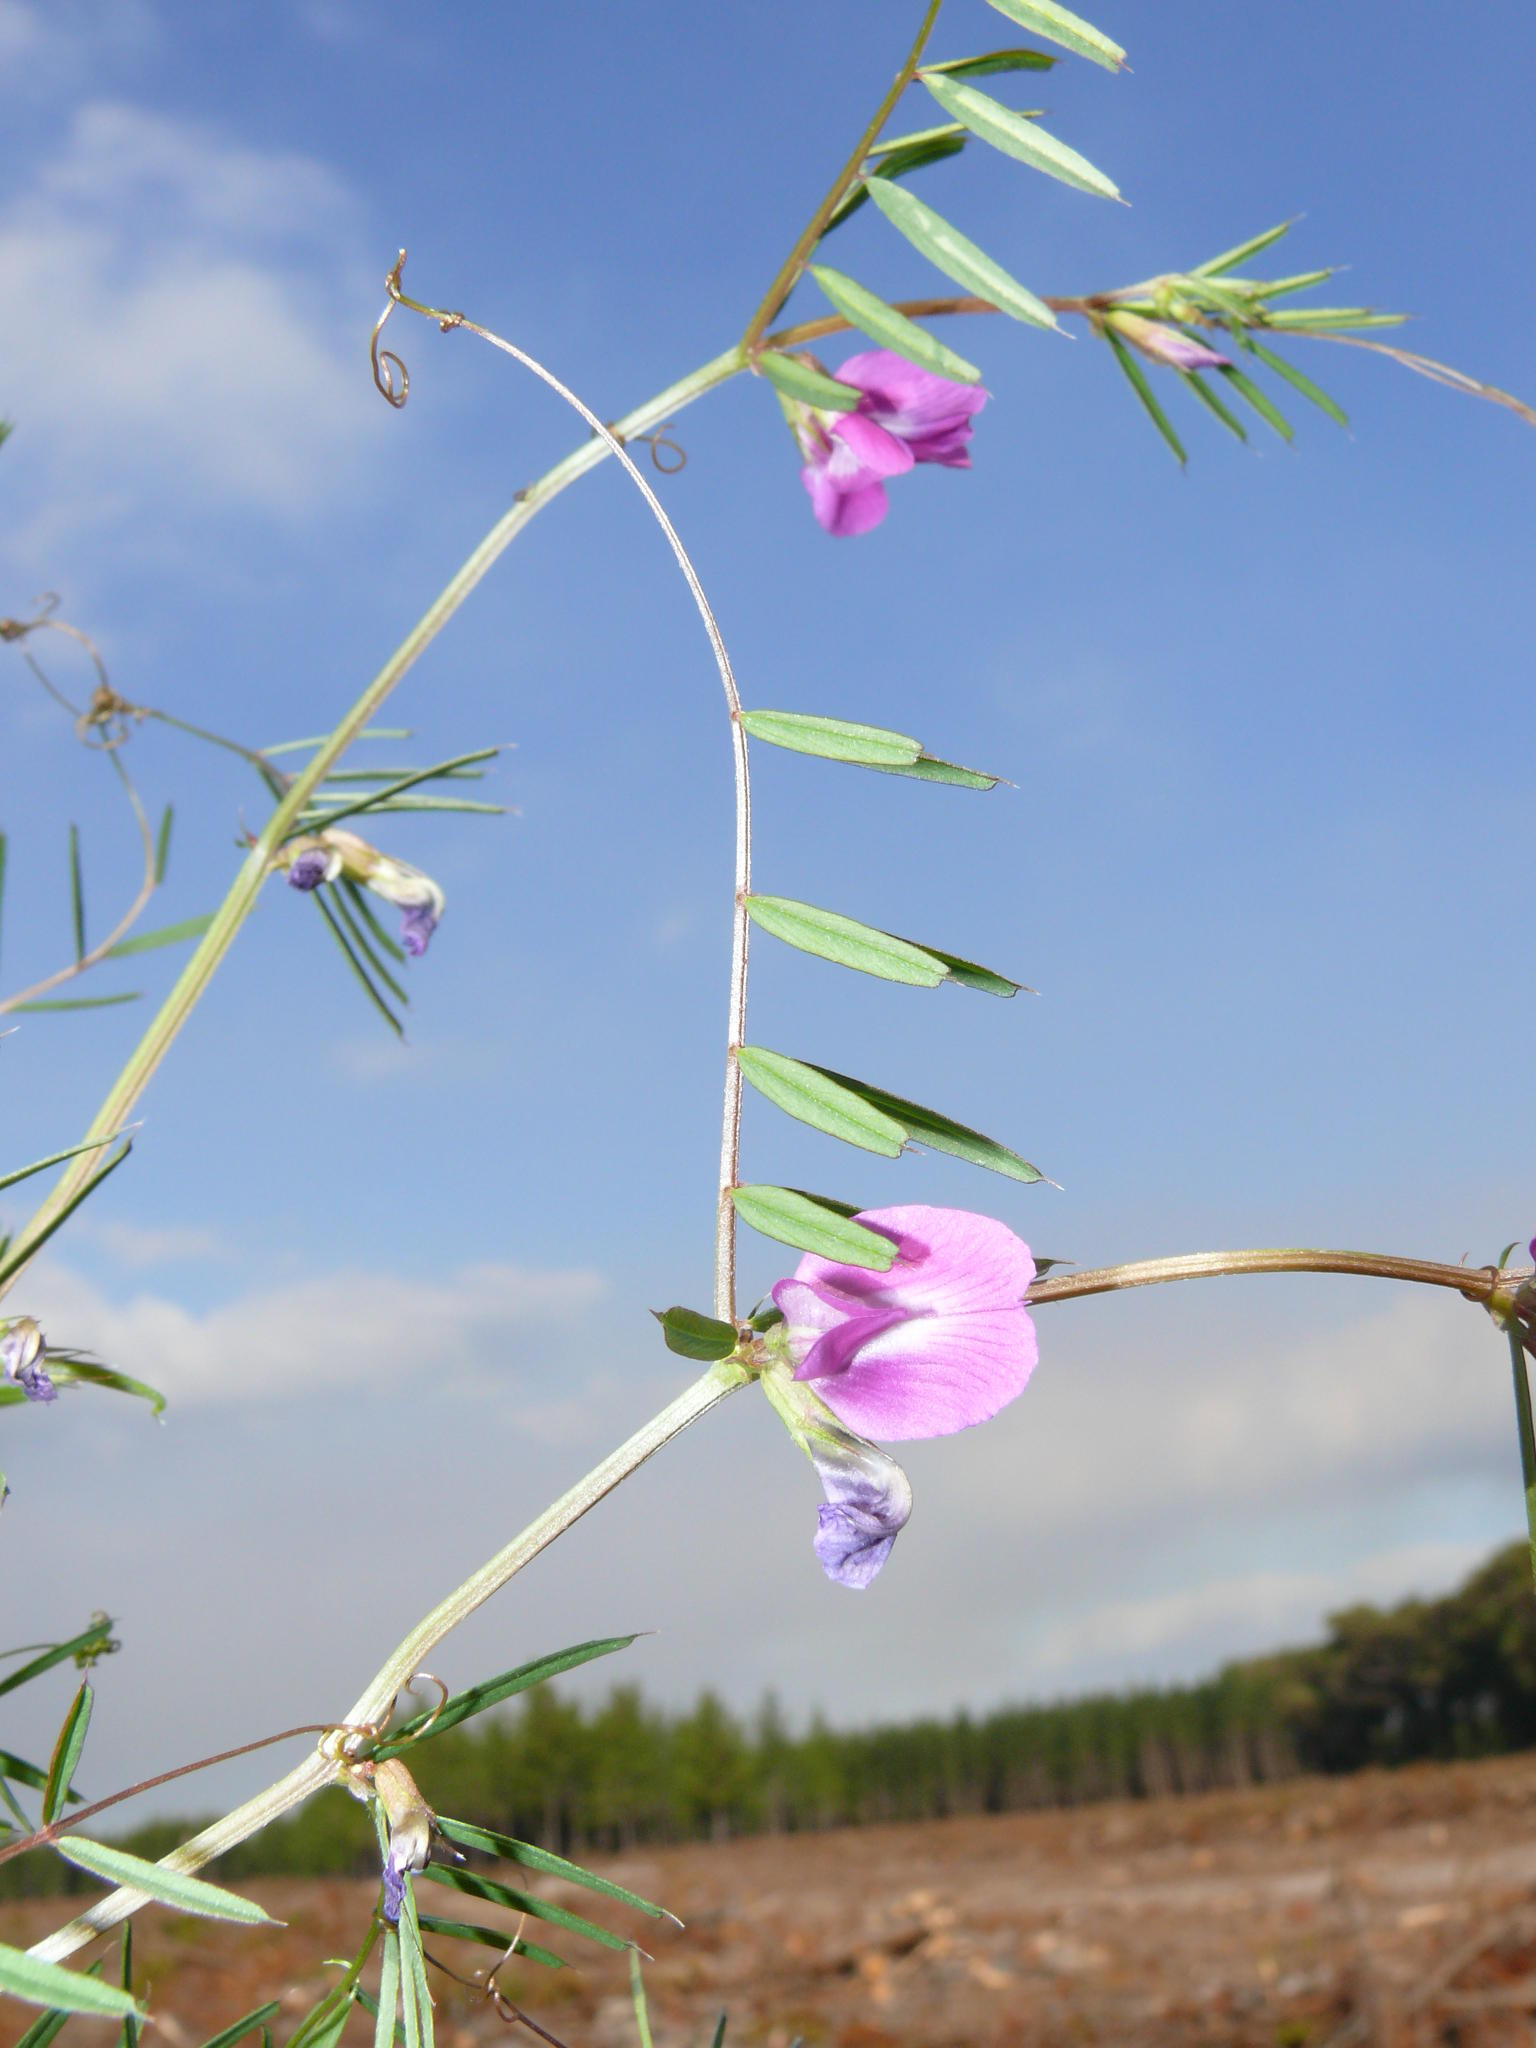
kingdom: Plantae
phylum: Tracheophyta
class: Magnoliopsida
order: Fabales
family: Fabaceae
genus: Vicia
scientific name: Vicia sativa
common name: Garden vetch
